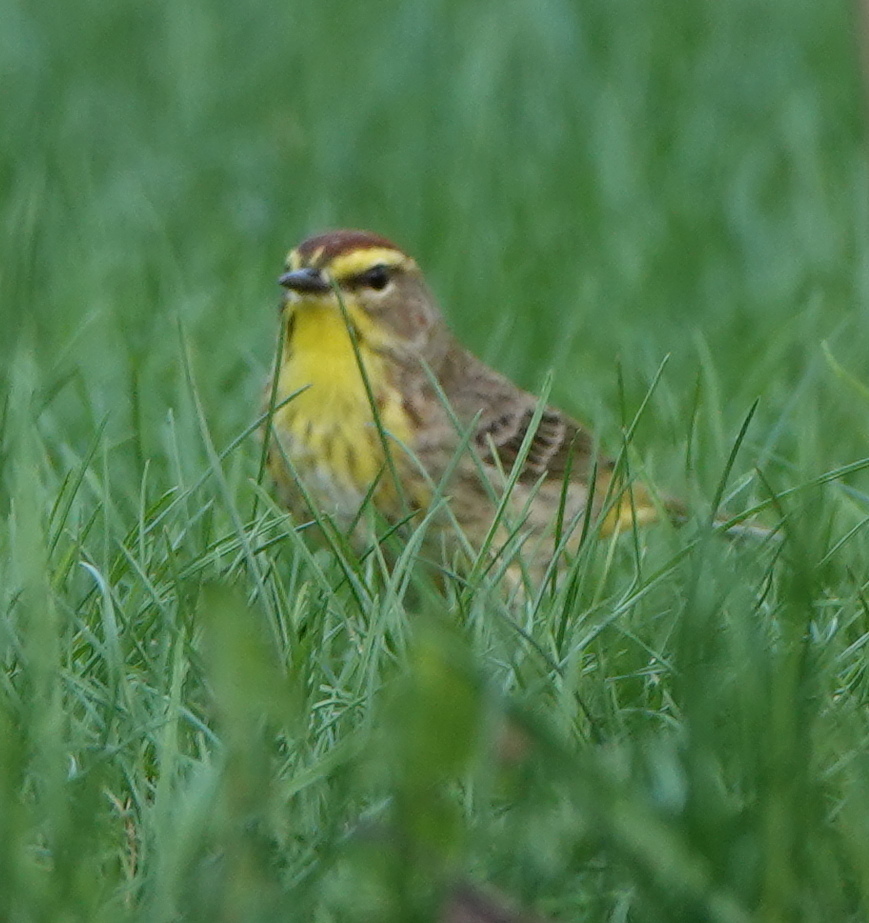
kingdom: Animalia
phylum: Chordata
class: Aves
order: Passeriformes
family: Parulidae
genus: Setophaga
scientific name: Setophaga palmarum
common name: Palm warbler
